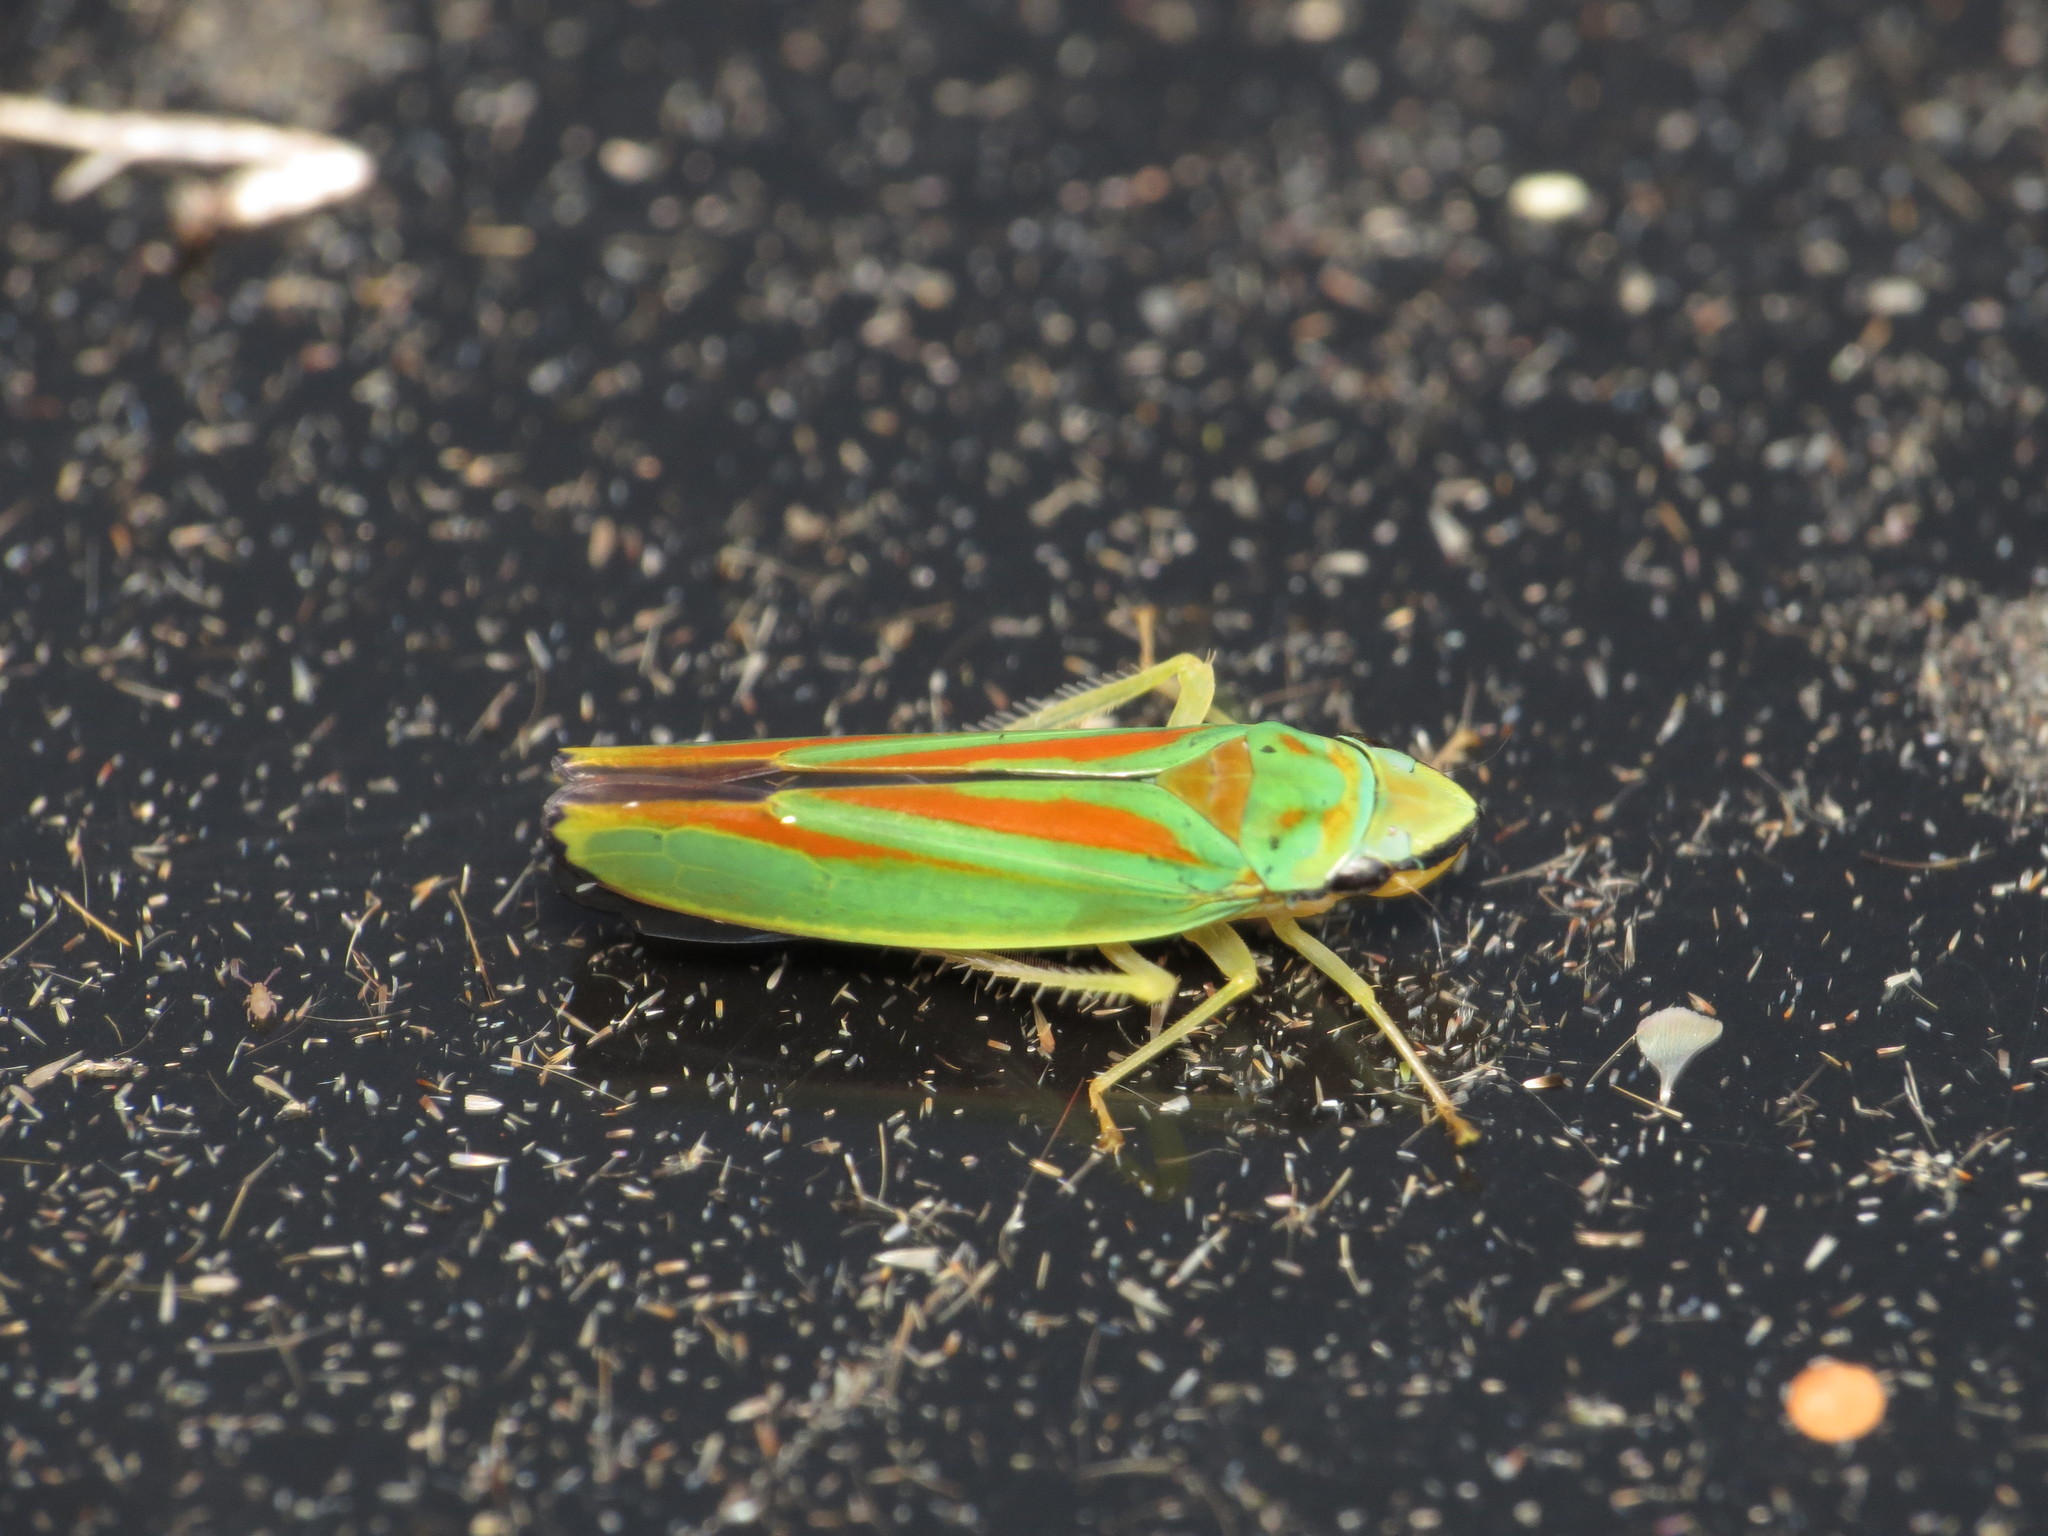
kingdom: Animalia
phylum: Arthropoda
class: Insecta
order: Hemiptera
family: Cicadellidae
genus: Graphocephala
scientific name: Graphocephala fennahi
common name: Rhododendron leafhopper
